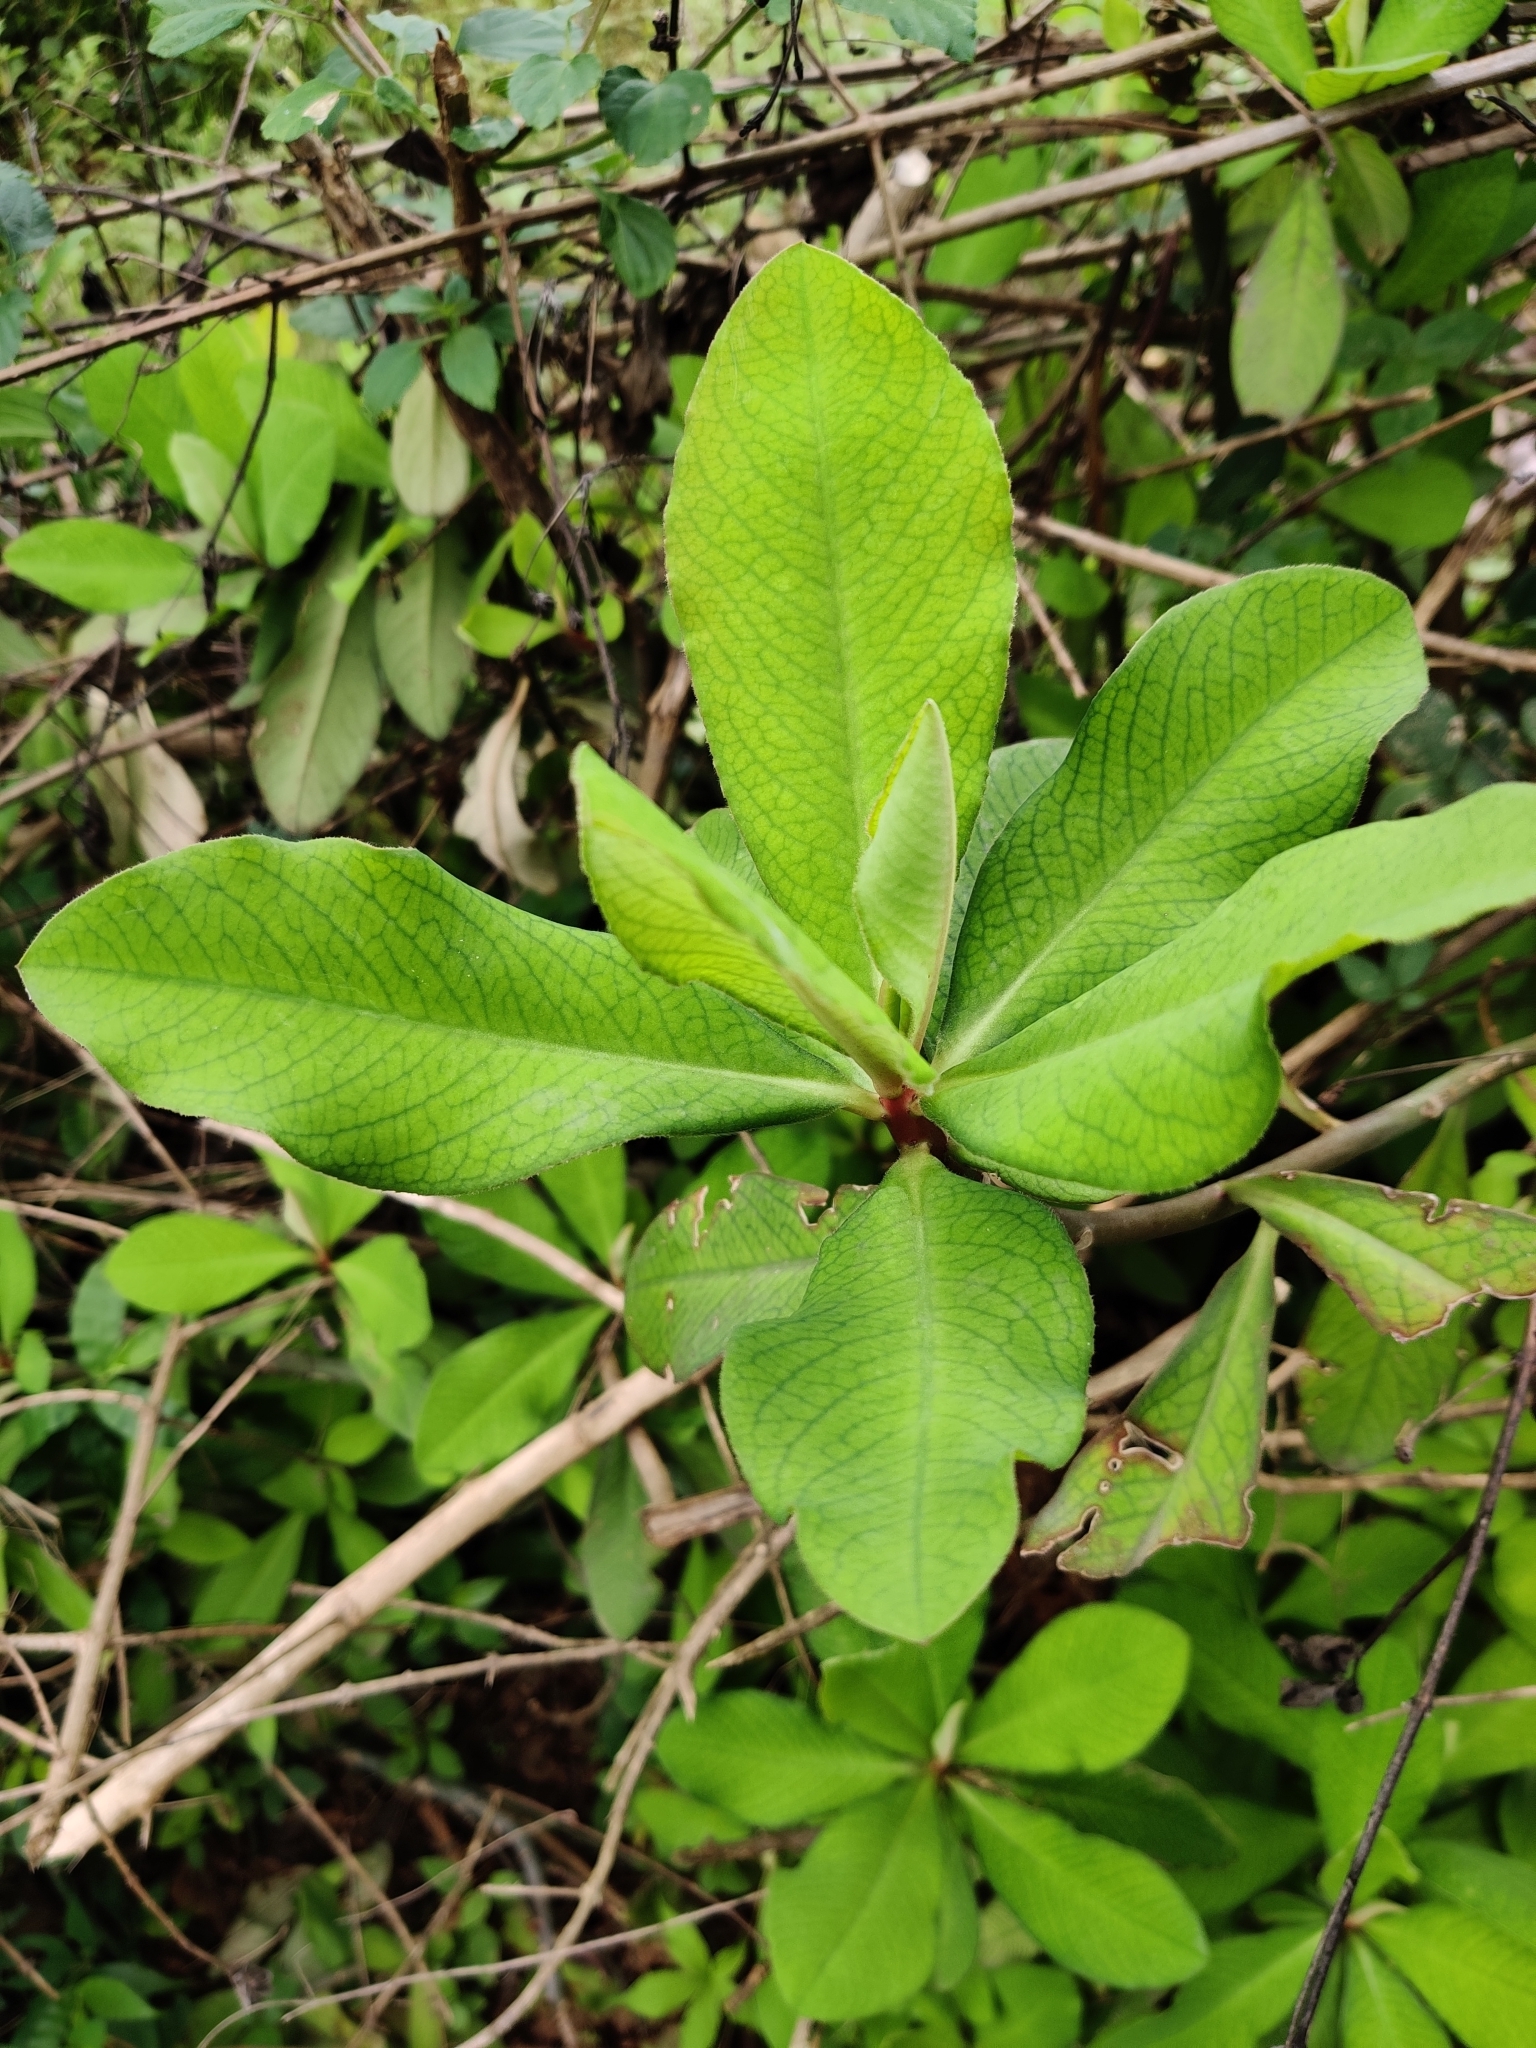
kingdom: Plantae
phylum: Tracheophyta
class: Magnoliopsida
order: Malpighiales
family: Euphorbiaceae
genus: Euphorbia
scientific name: Euphorbia umbellata
